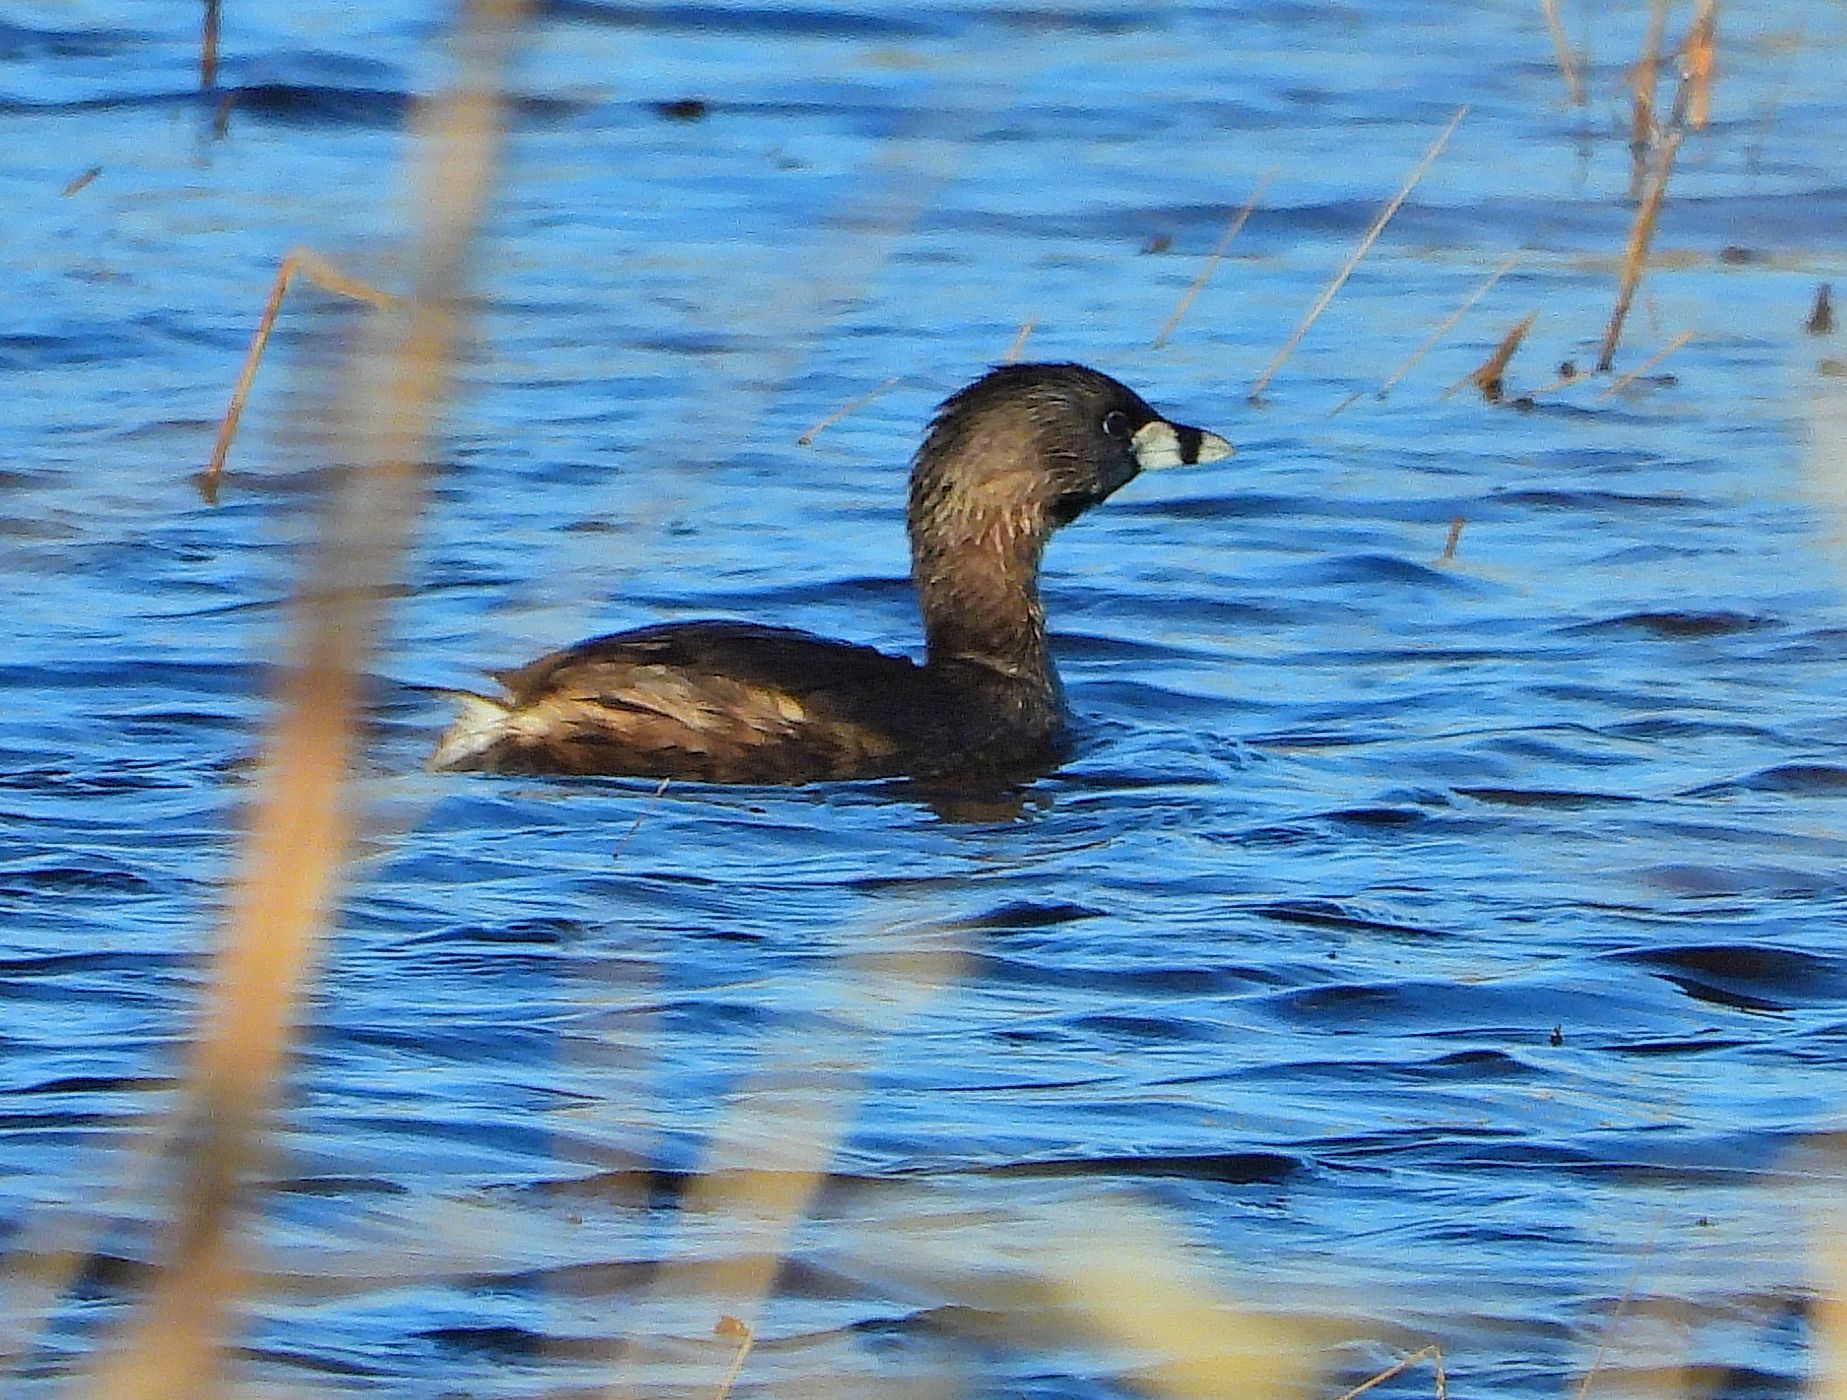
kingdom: Animalia
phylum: Chordata
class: Aves
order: Podicipediformes
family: Podicipedidae
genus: Podilymbus
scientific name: Podilymbus podiceps
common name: Pied-billed grebe
